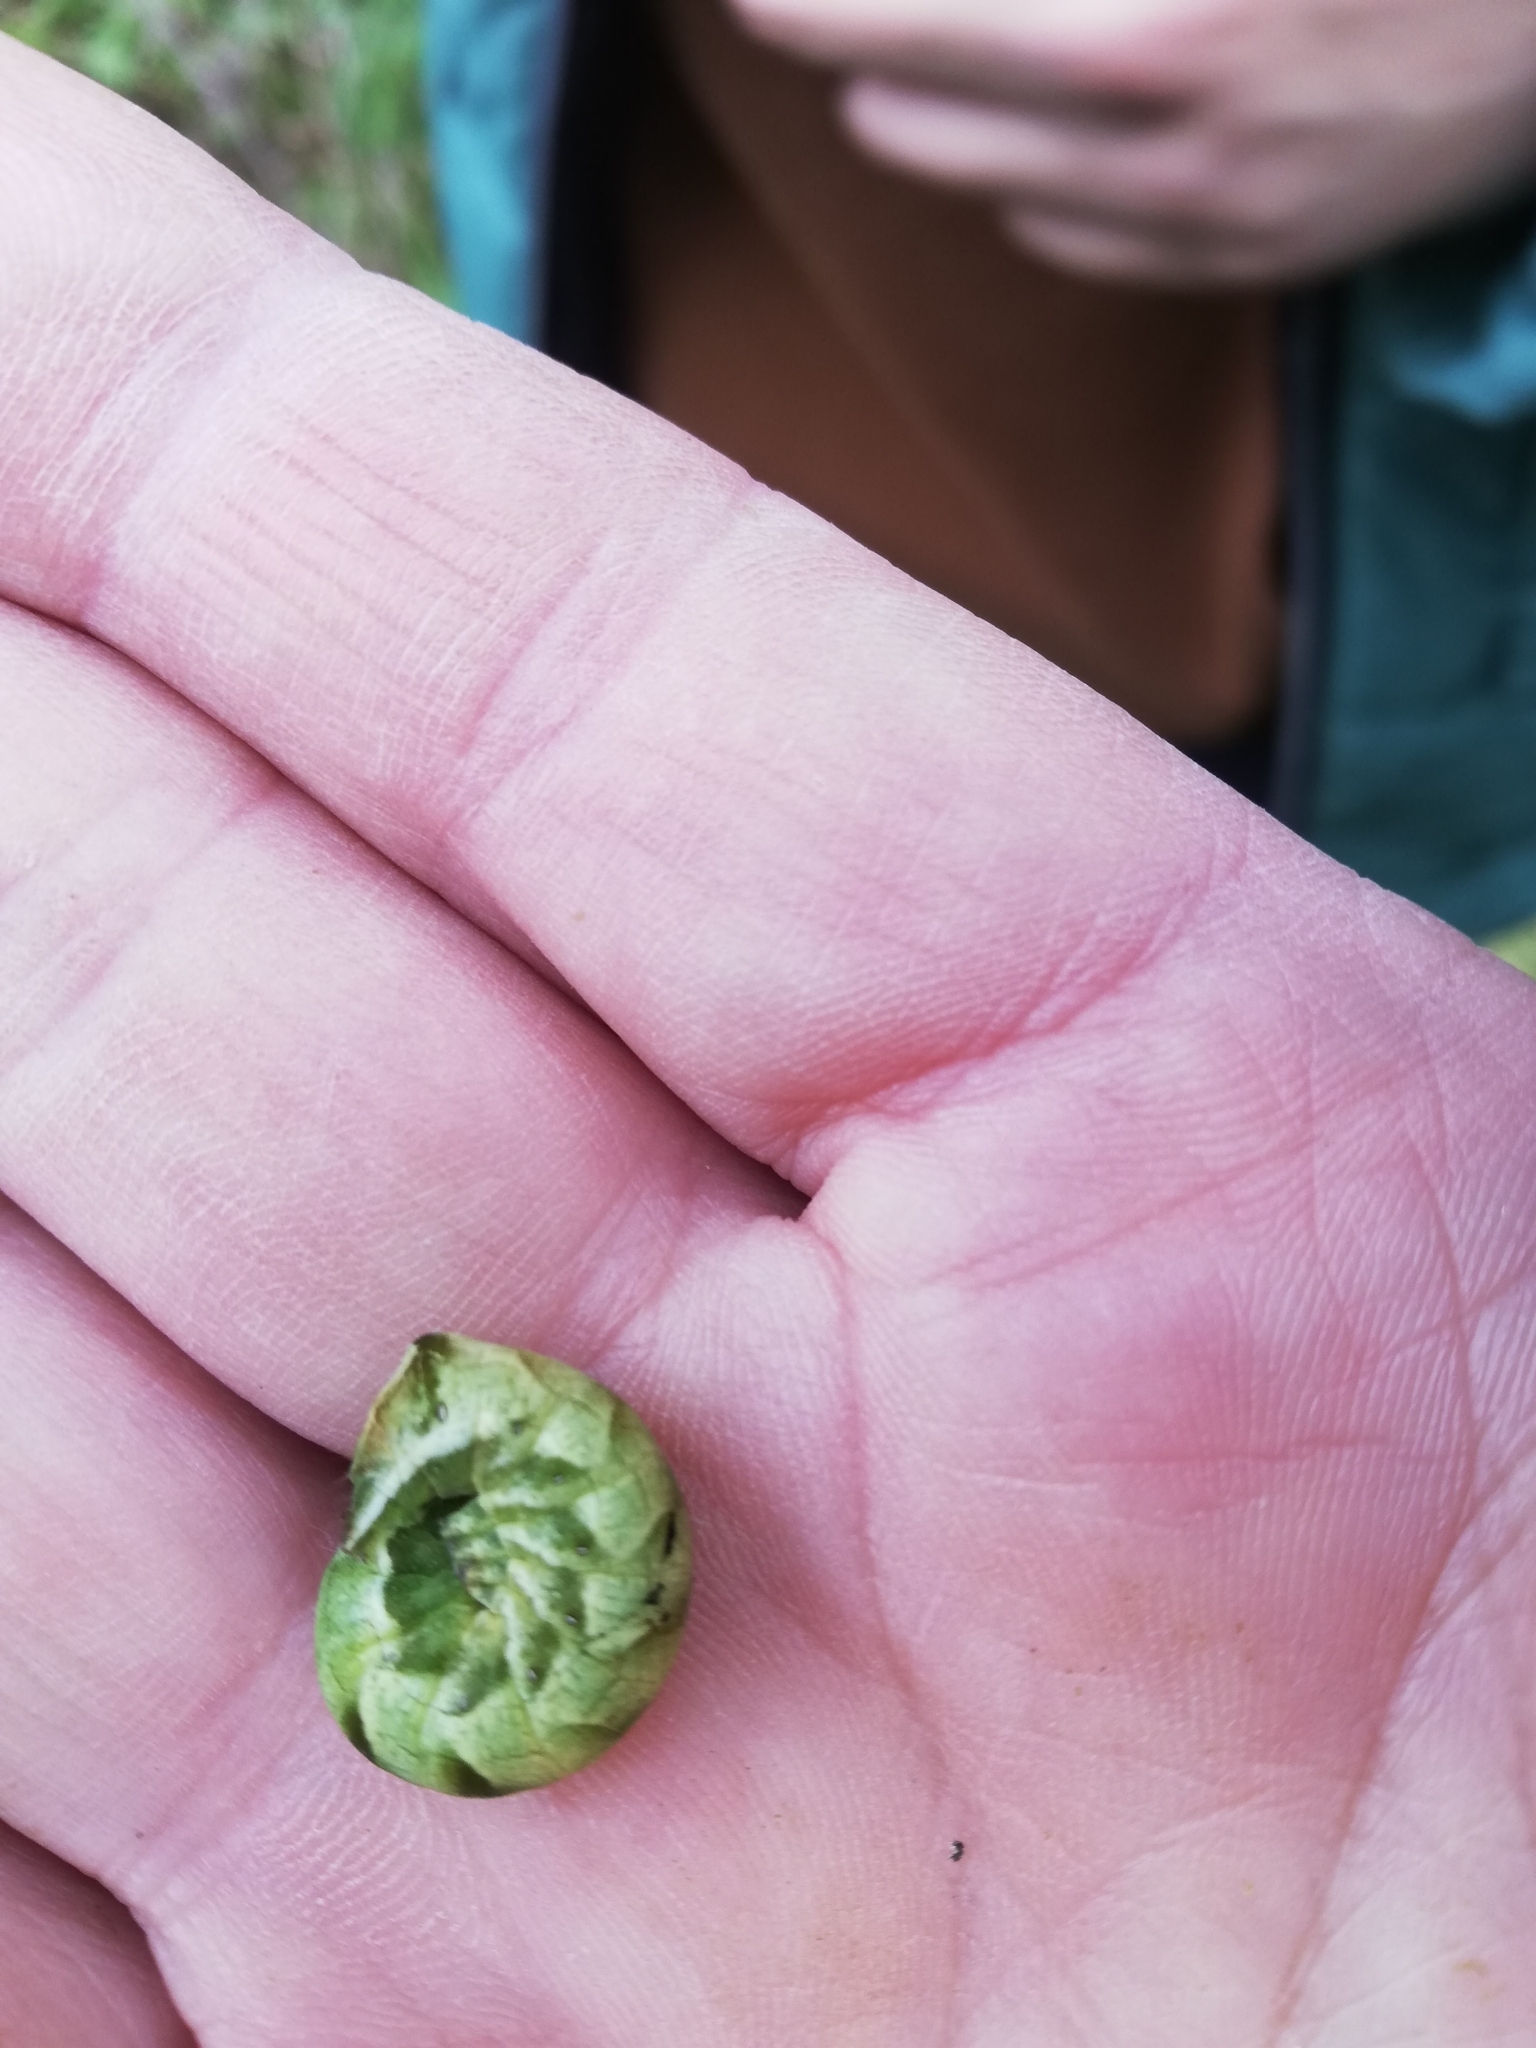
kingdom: Animalia
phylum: Arthropoda
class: Insecta
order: Lepidoptera
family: Noctuidae
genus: Melanchra
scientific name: Melanchra persicariae
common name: Dot moth
